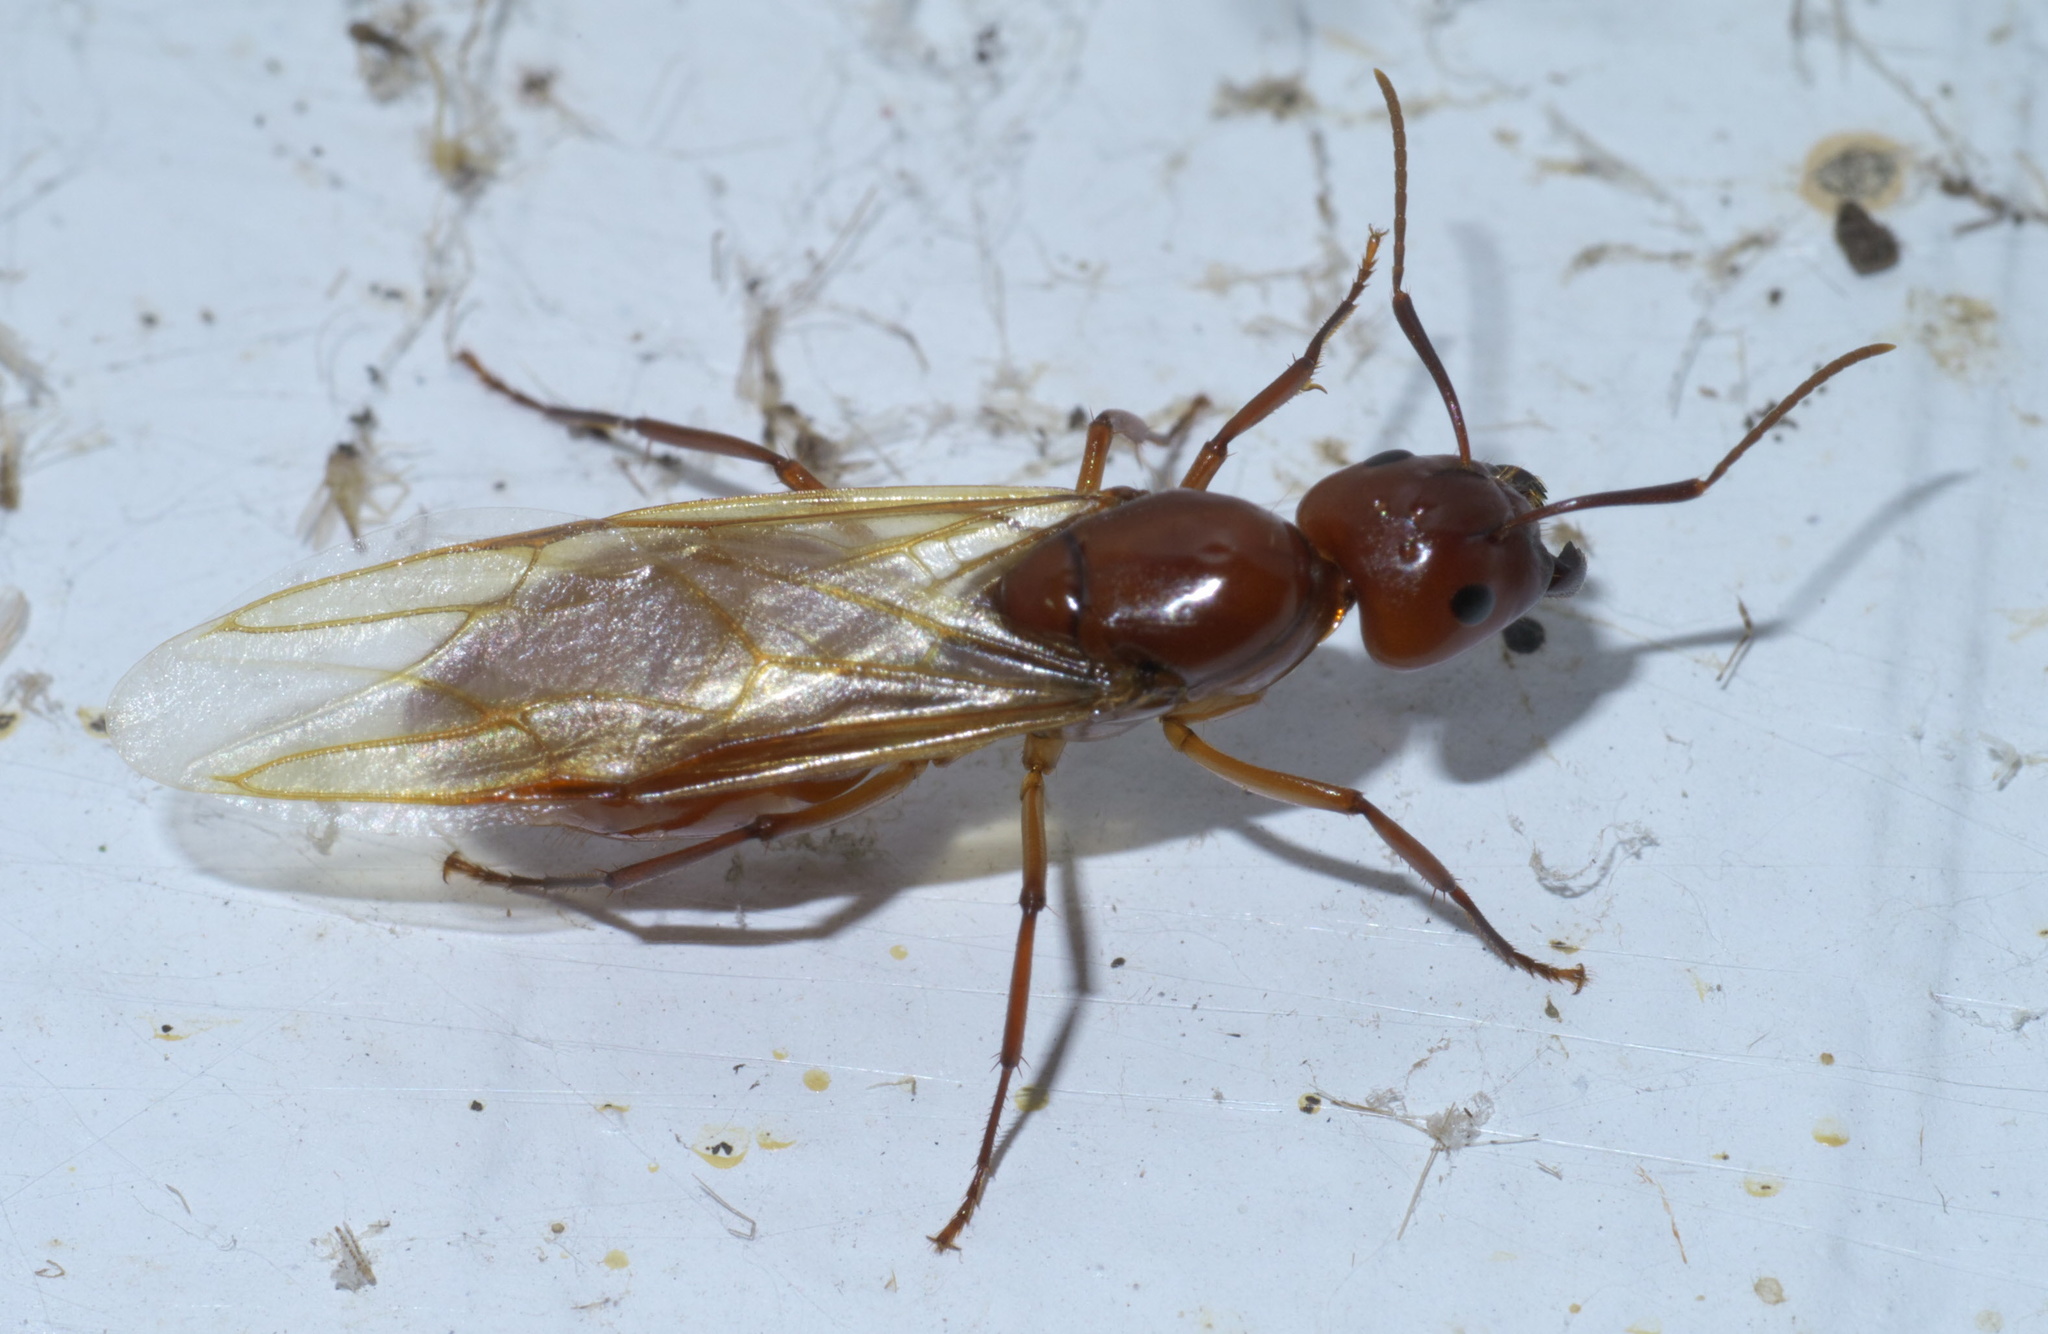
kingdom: Animalia
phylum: Arthropoda
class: Insecta
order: Hymenoptera
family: Formicidae
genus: Camponotus
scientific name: Camponotus castaneus
